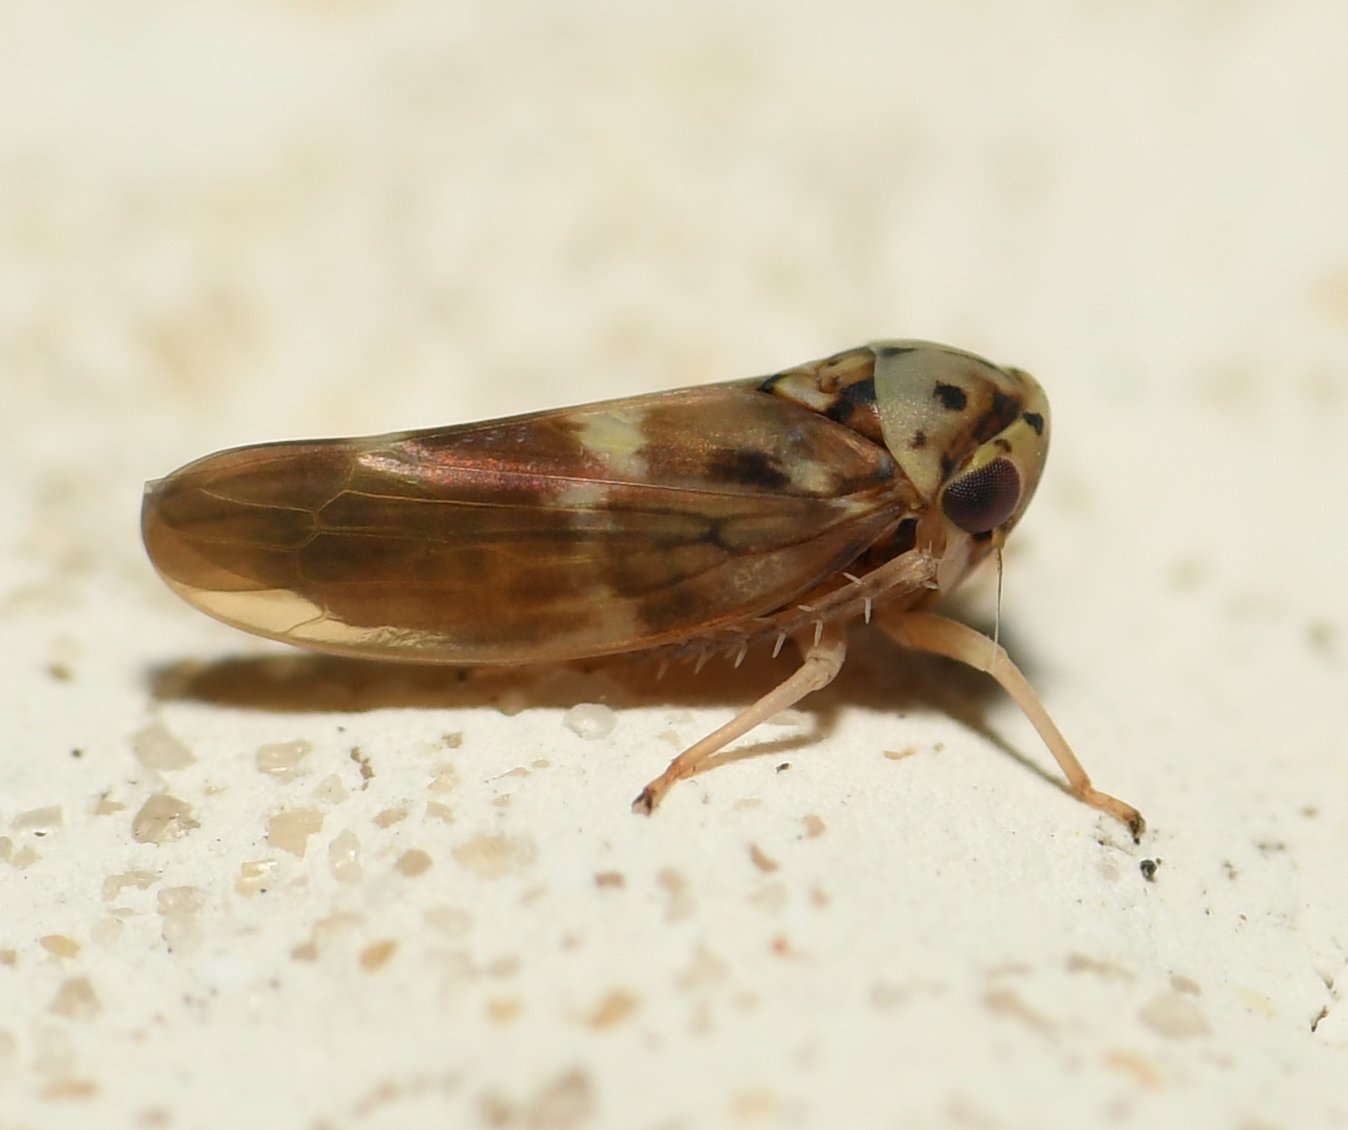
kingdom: Animalia
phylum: Arthropoda
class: Insecta
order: Hemiptera
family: Cicadellidae
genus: Agalliopsis
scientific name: Agalliopsis cervina
